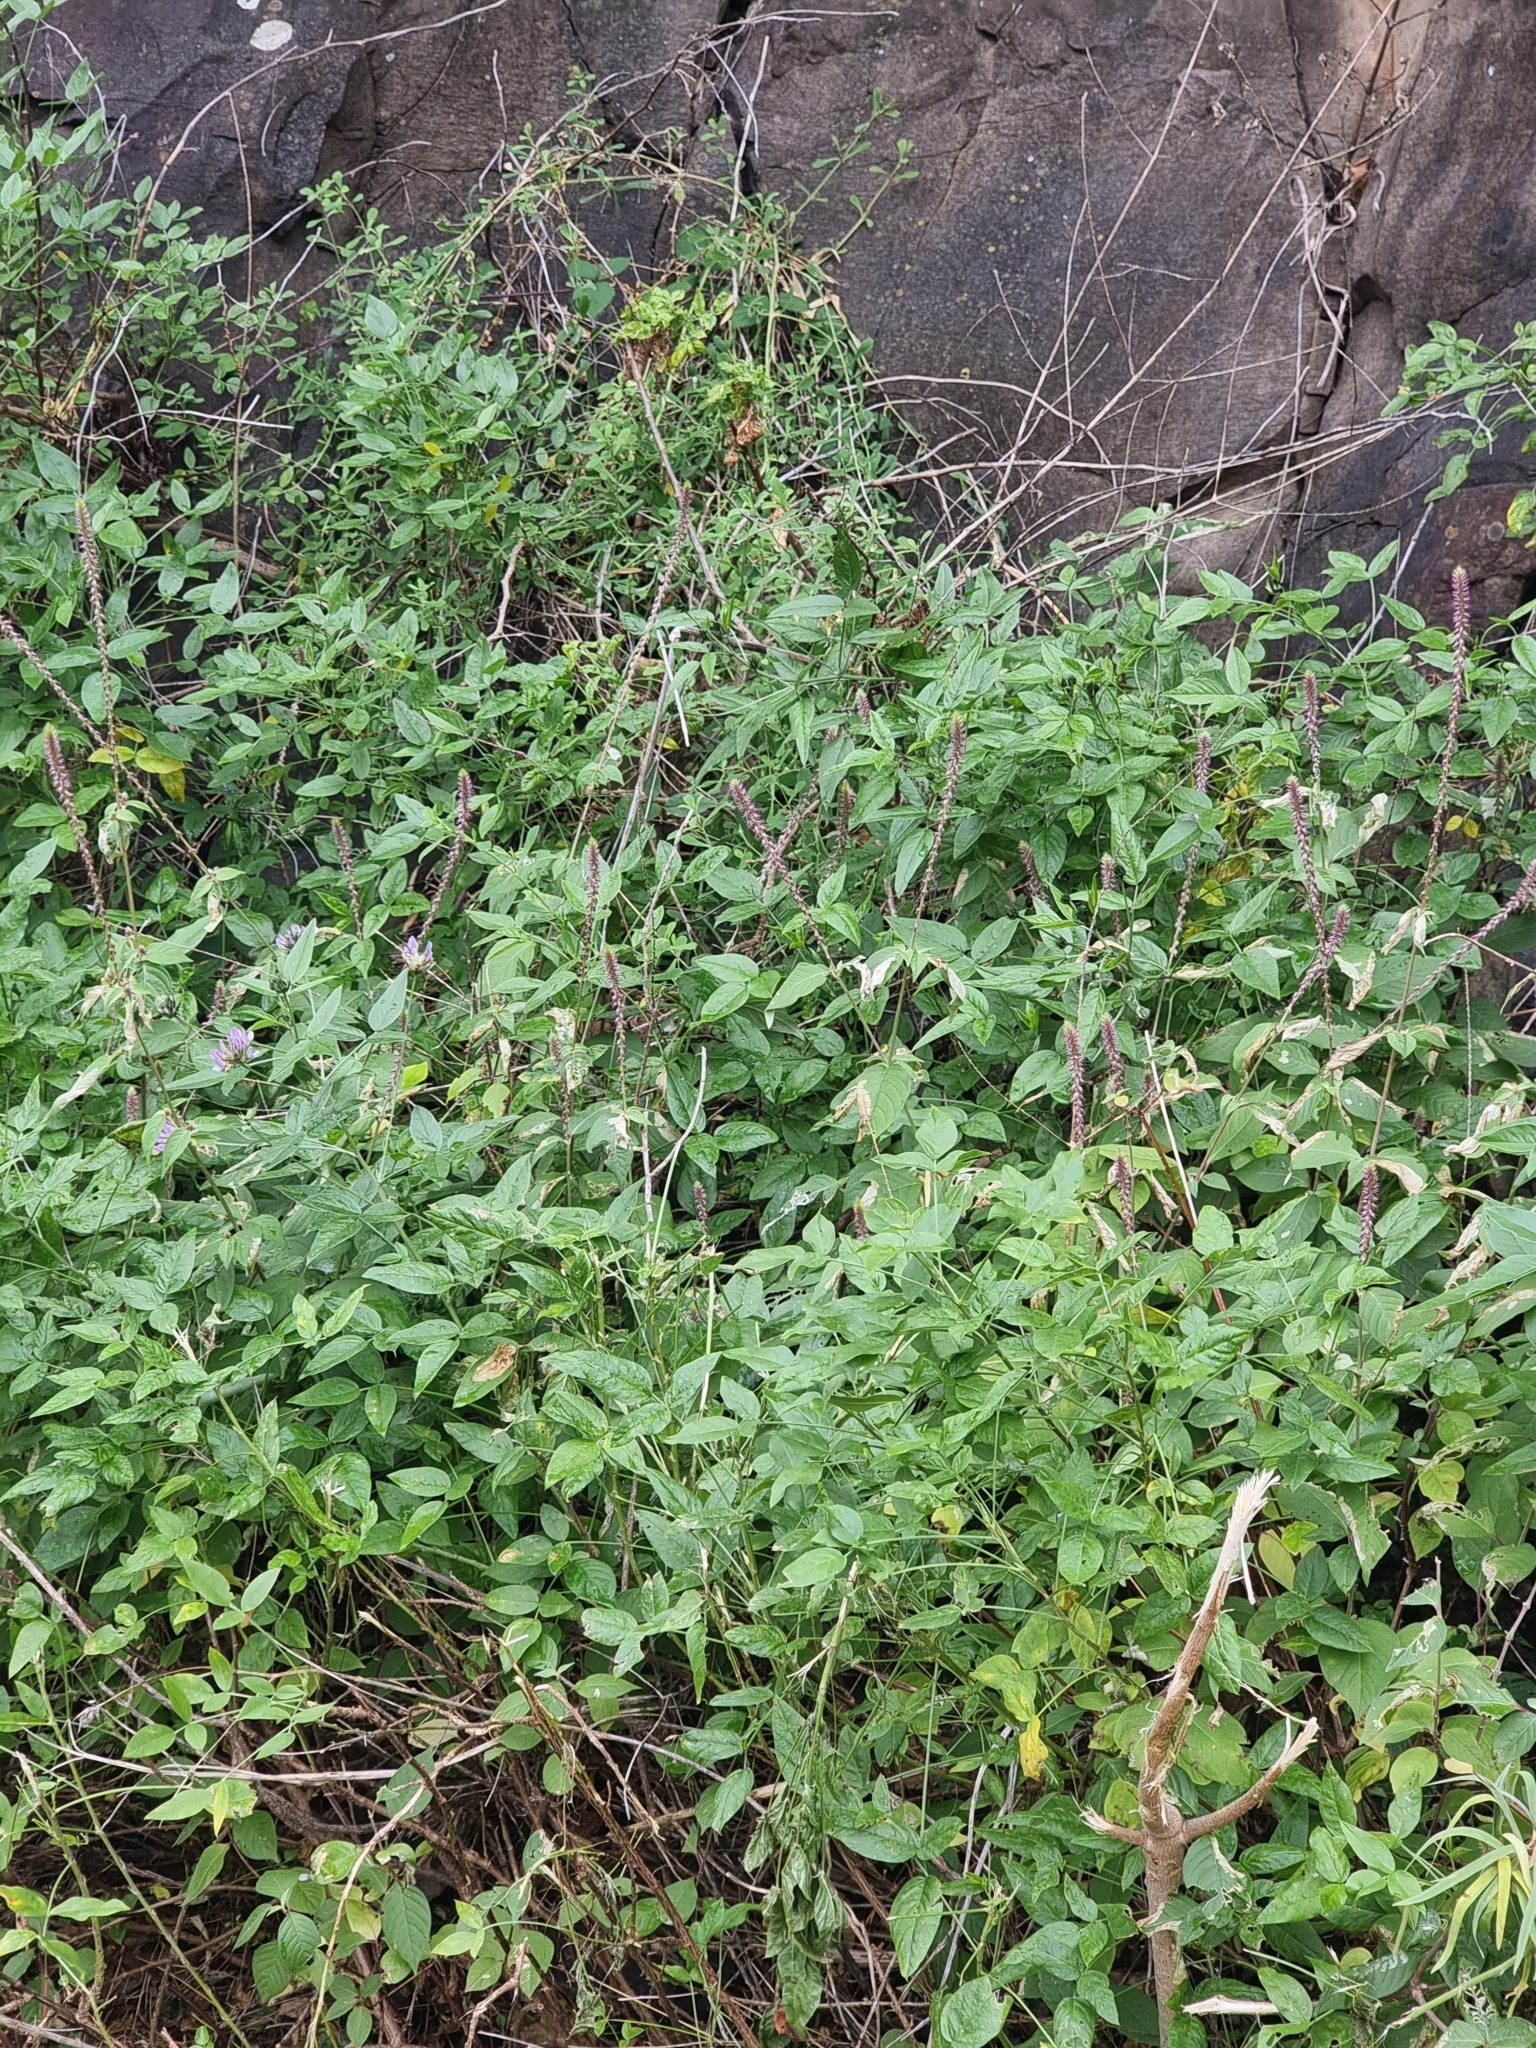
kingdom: Plantae
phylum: Tracheophyta
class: Magnoliopsida
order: Caryophyllales
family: Amaranthaceae
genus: Achyranthes
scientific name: Achyranthes aspera
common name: Devil's horsewhip
